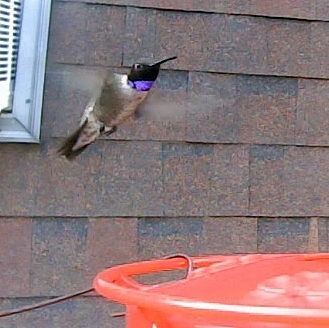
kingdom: Animalia
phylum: Chordata
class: Aves
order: Apodiformes
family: Trochilidae
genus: Archilochus
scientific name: Archilochus alexandri
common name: Black-chinned hummingbird
